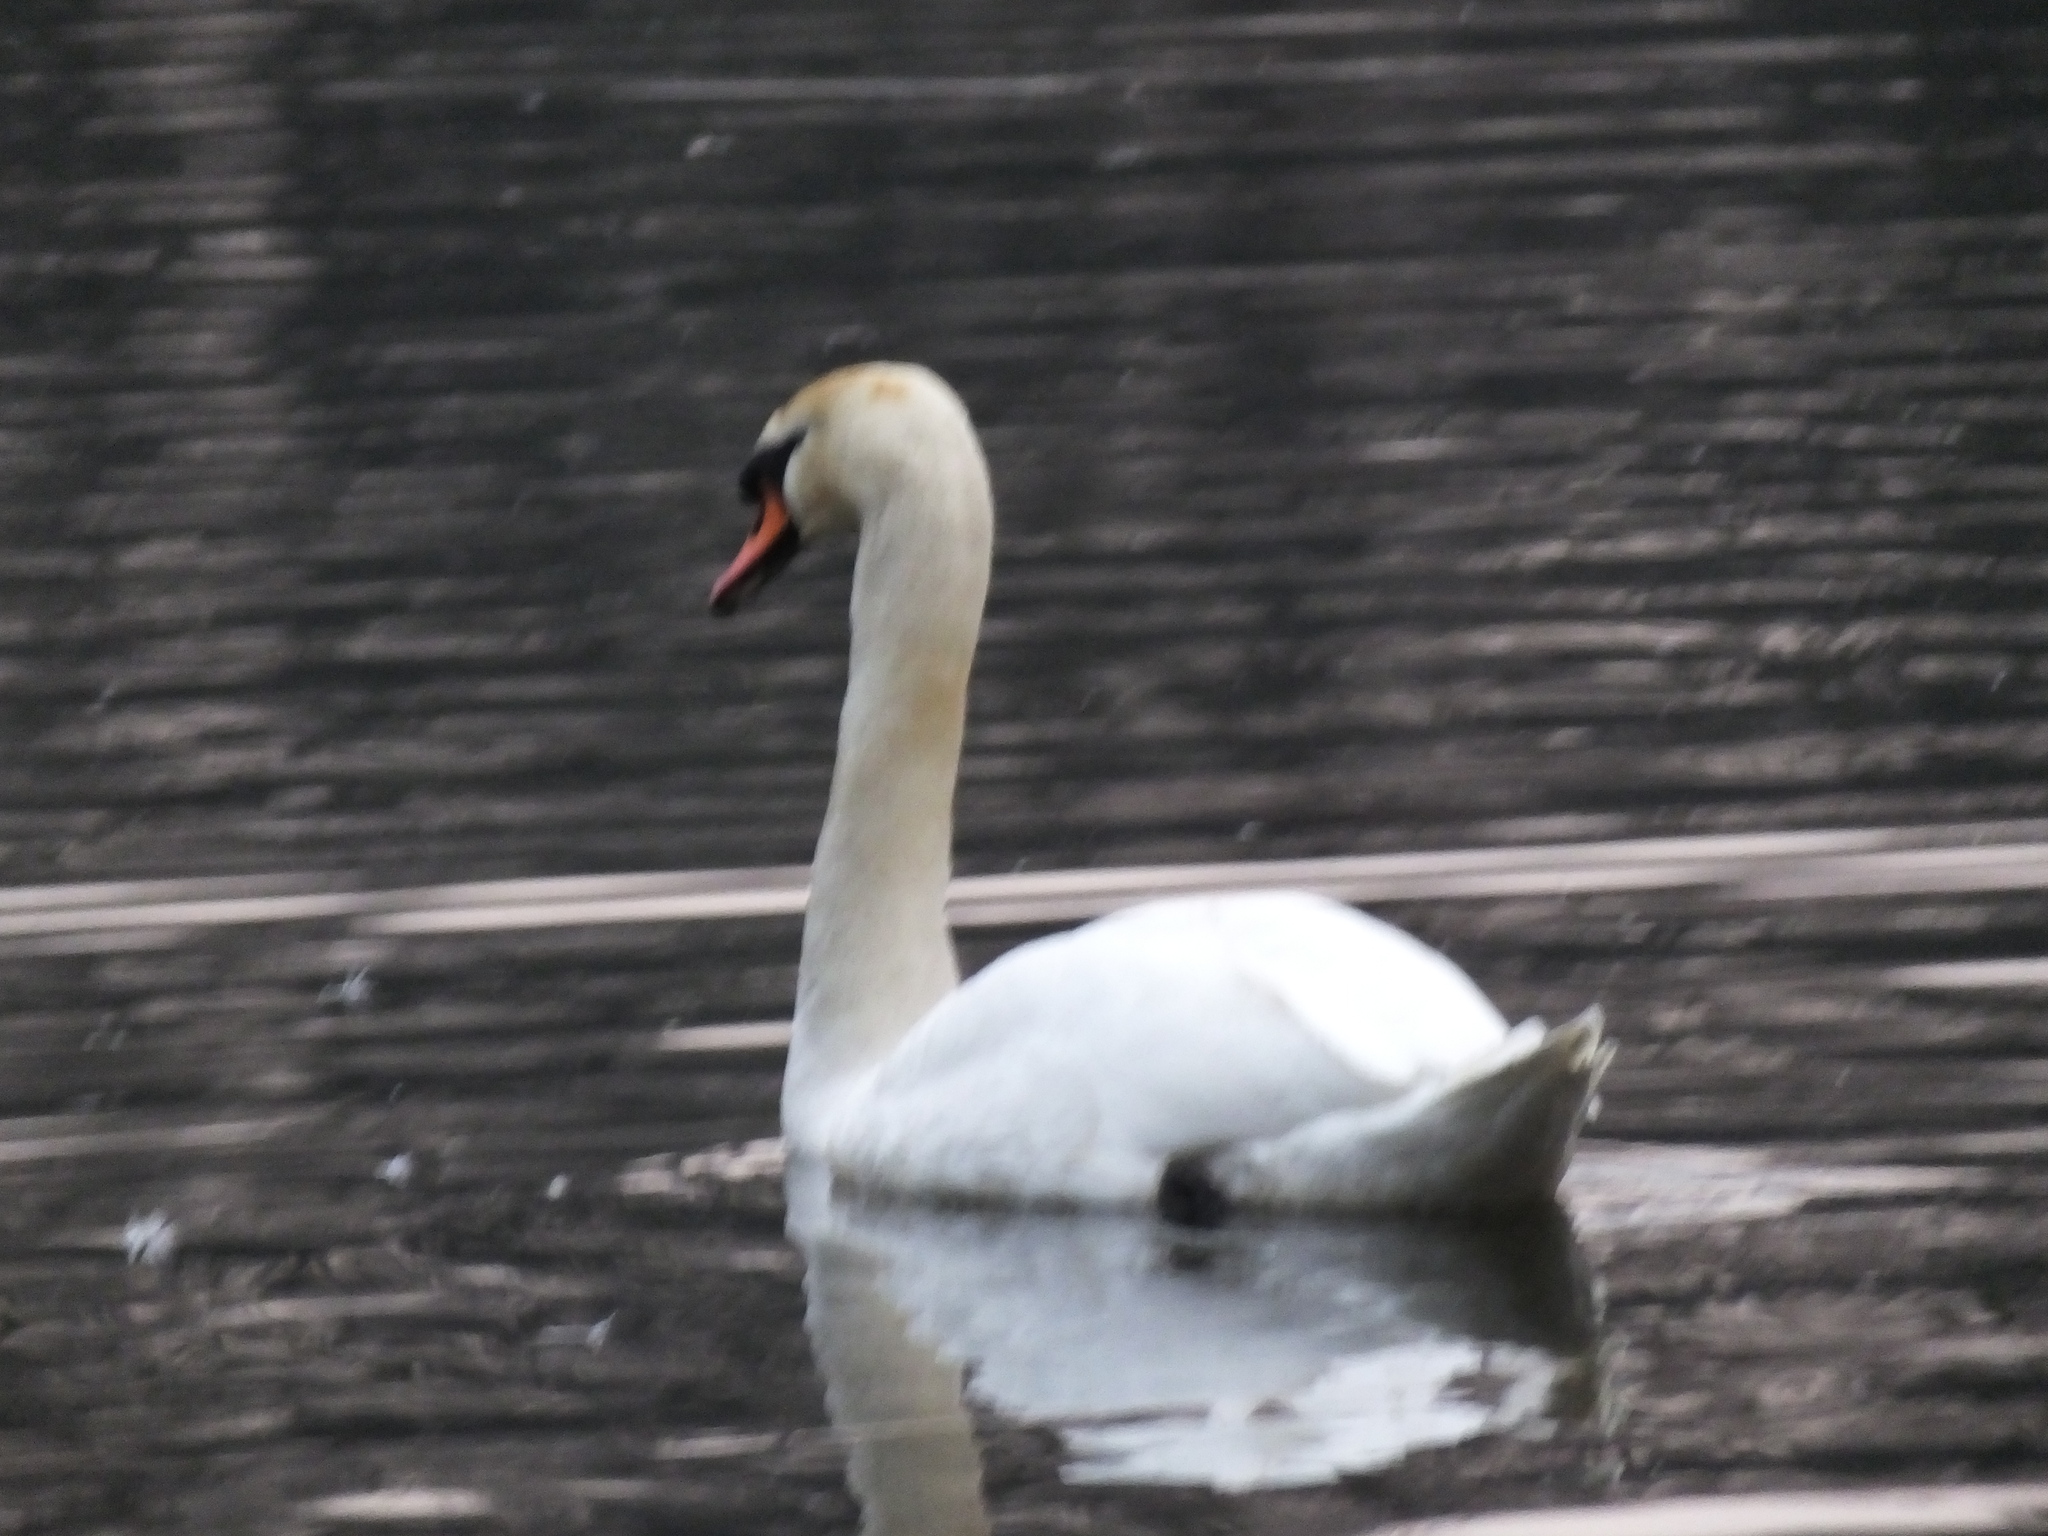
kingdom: Animalia
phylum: Chordata
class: Aves
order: Anseriformes
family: Anatidae
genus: Cygnus
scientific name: Cygnus olor
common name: Mute swan
